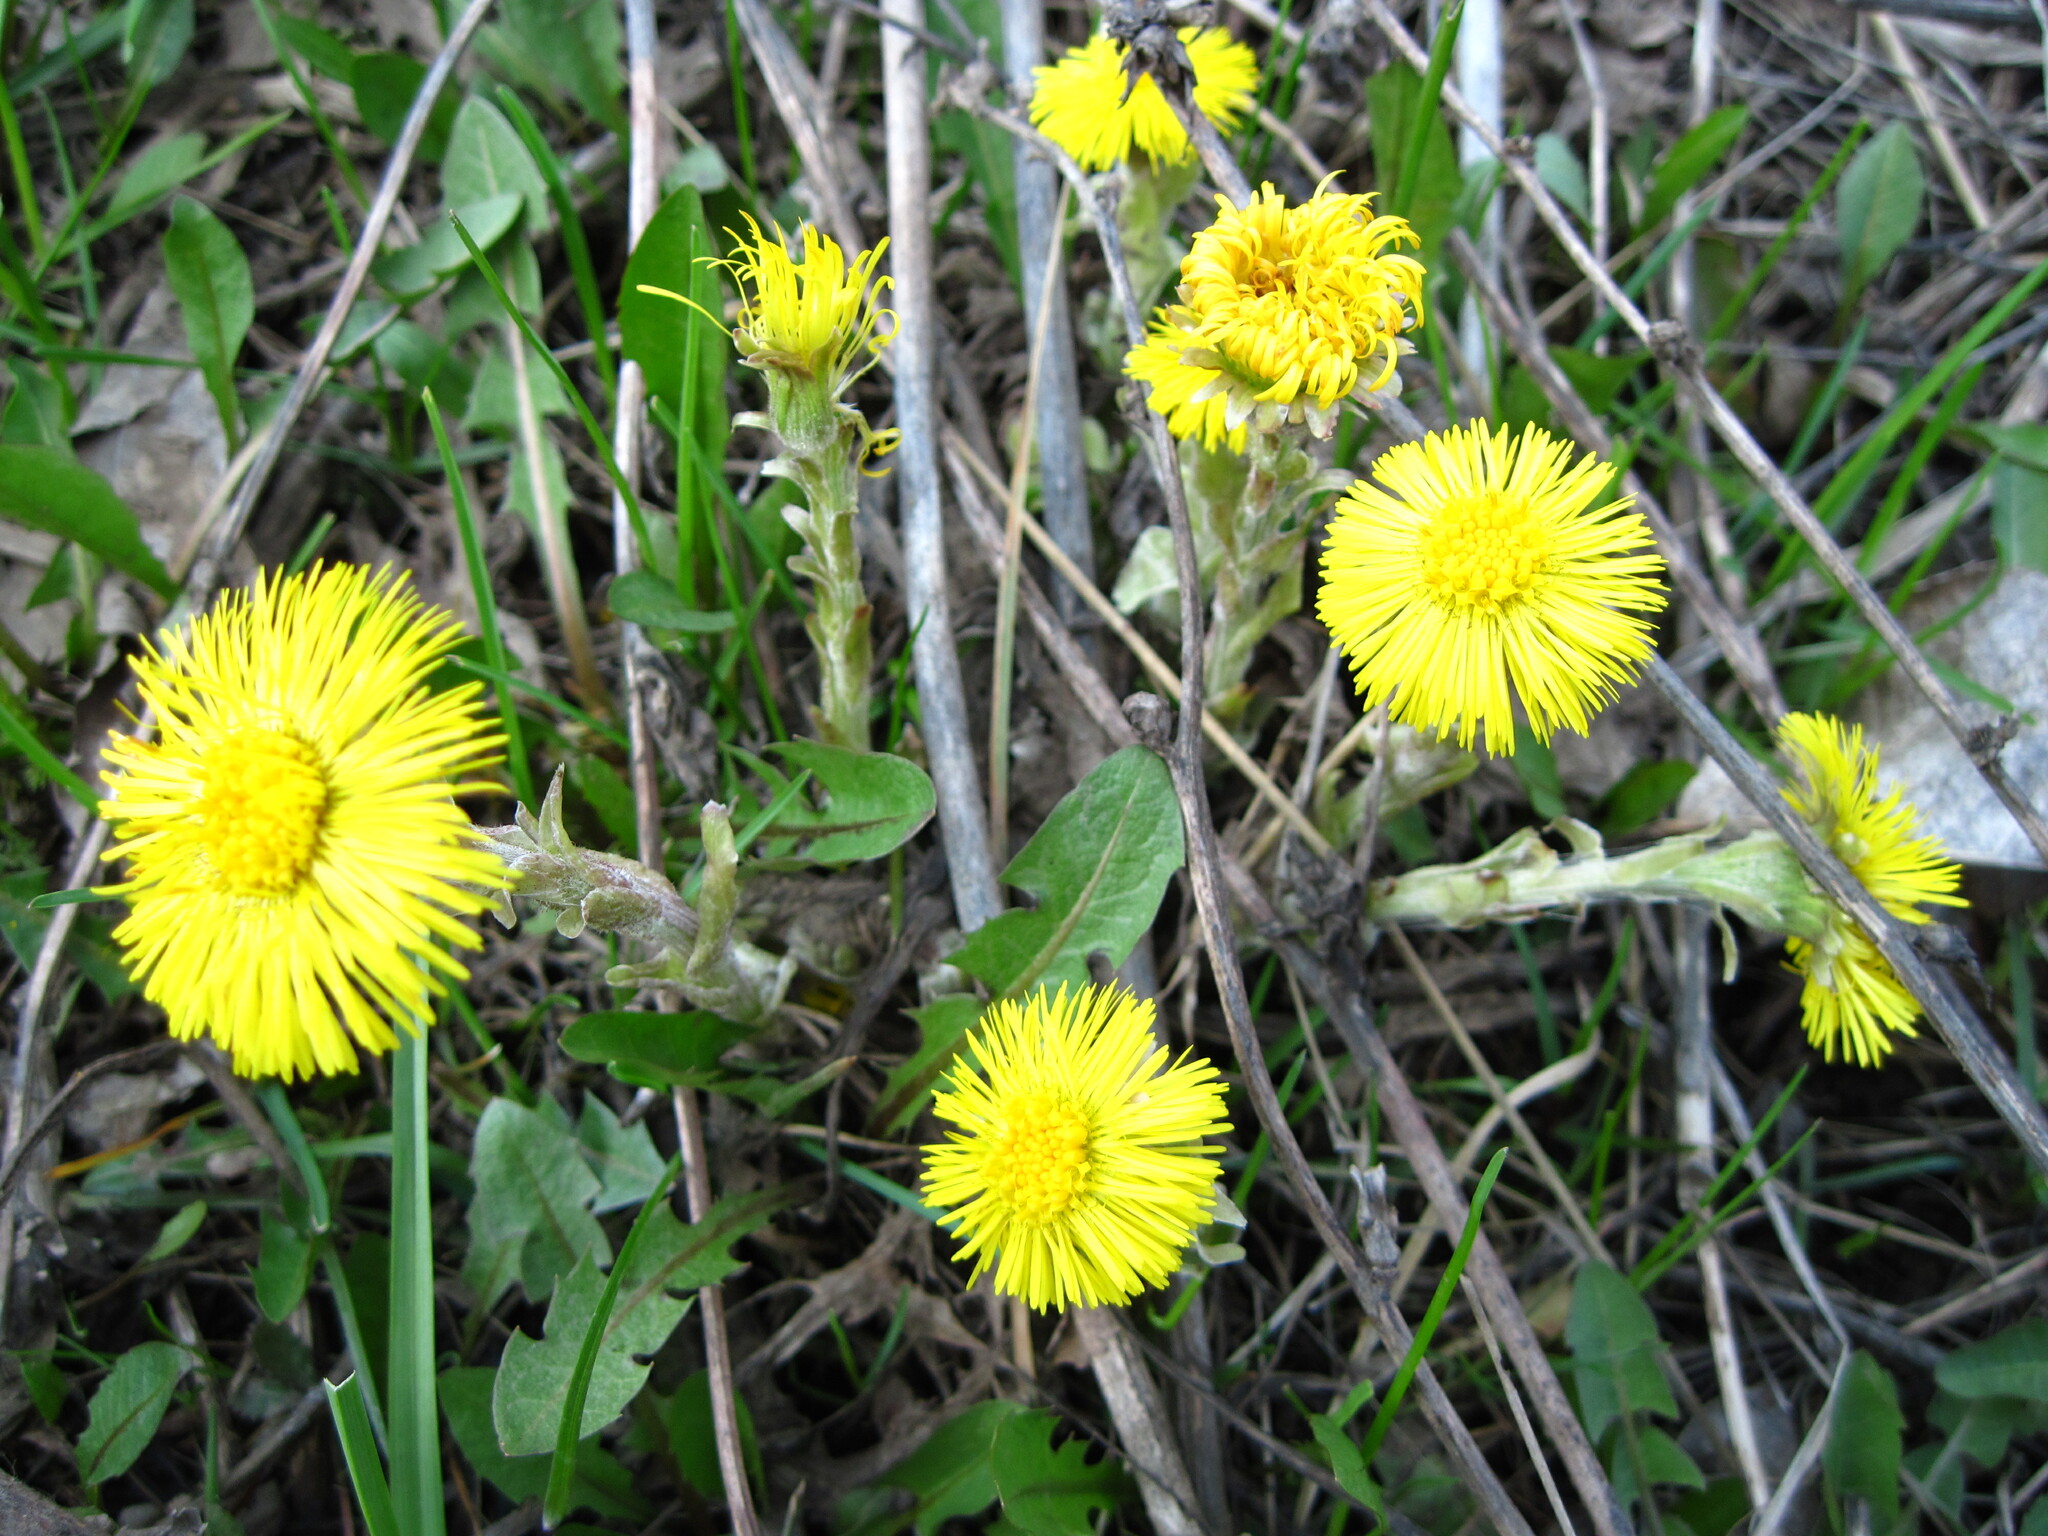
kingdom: Plantae
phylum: Tracheophyta
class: Magnoliopsida
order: Asterales
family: Asteraceae
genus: Tussilago
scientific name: Tussilago farfara
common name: Coltsfoot
